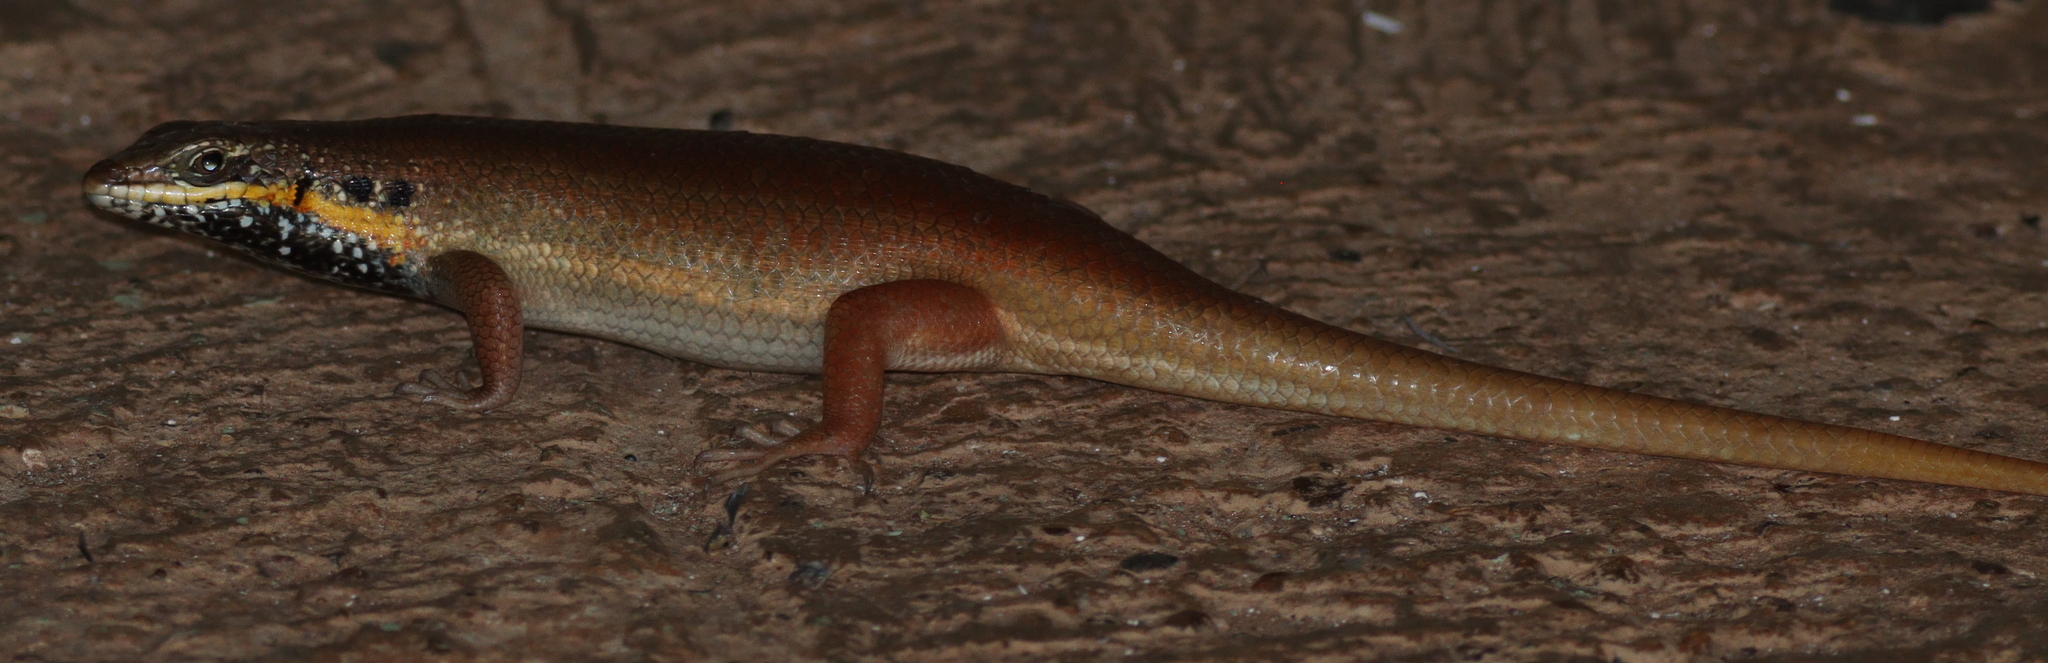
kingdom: Animalia
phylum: Chordata
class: Squamata
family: Scincidae
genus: Trachylepis
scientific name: Trachylepis quinquetaeniata
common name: African five-lined skink
